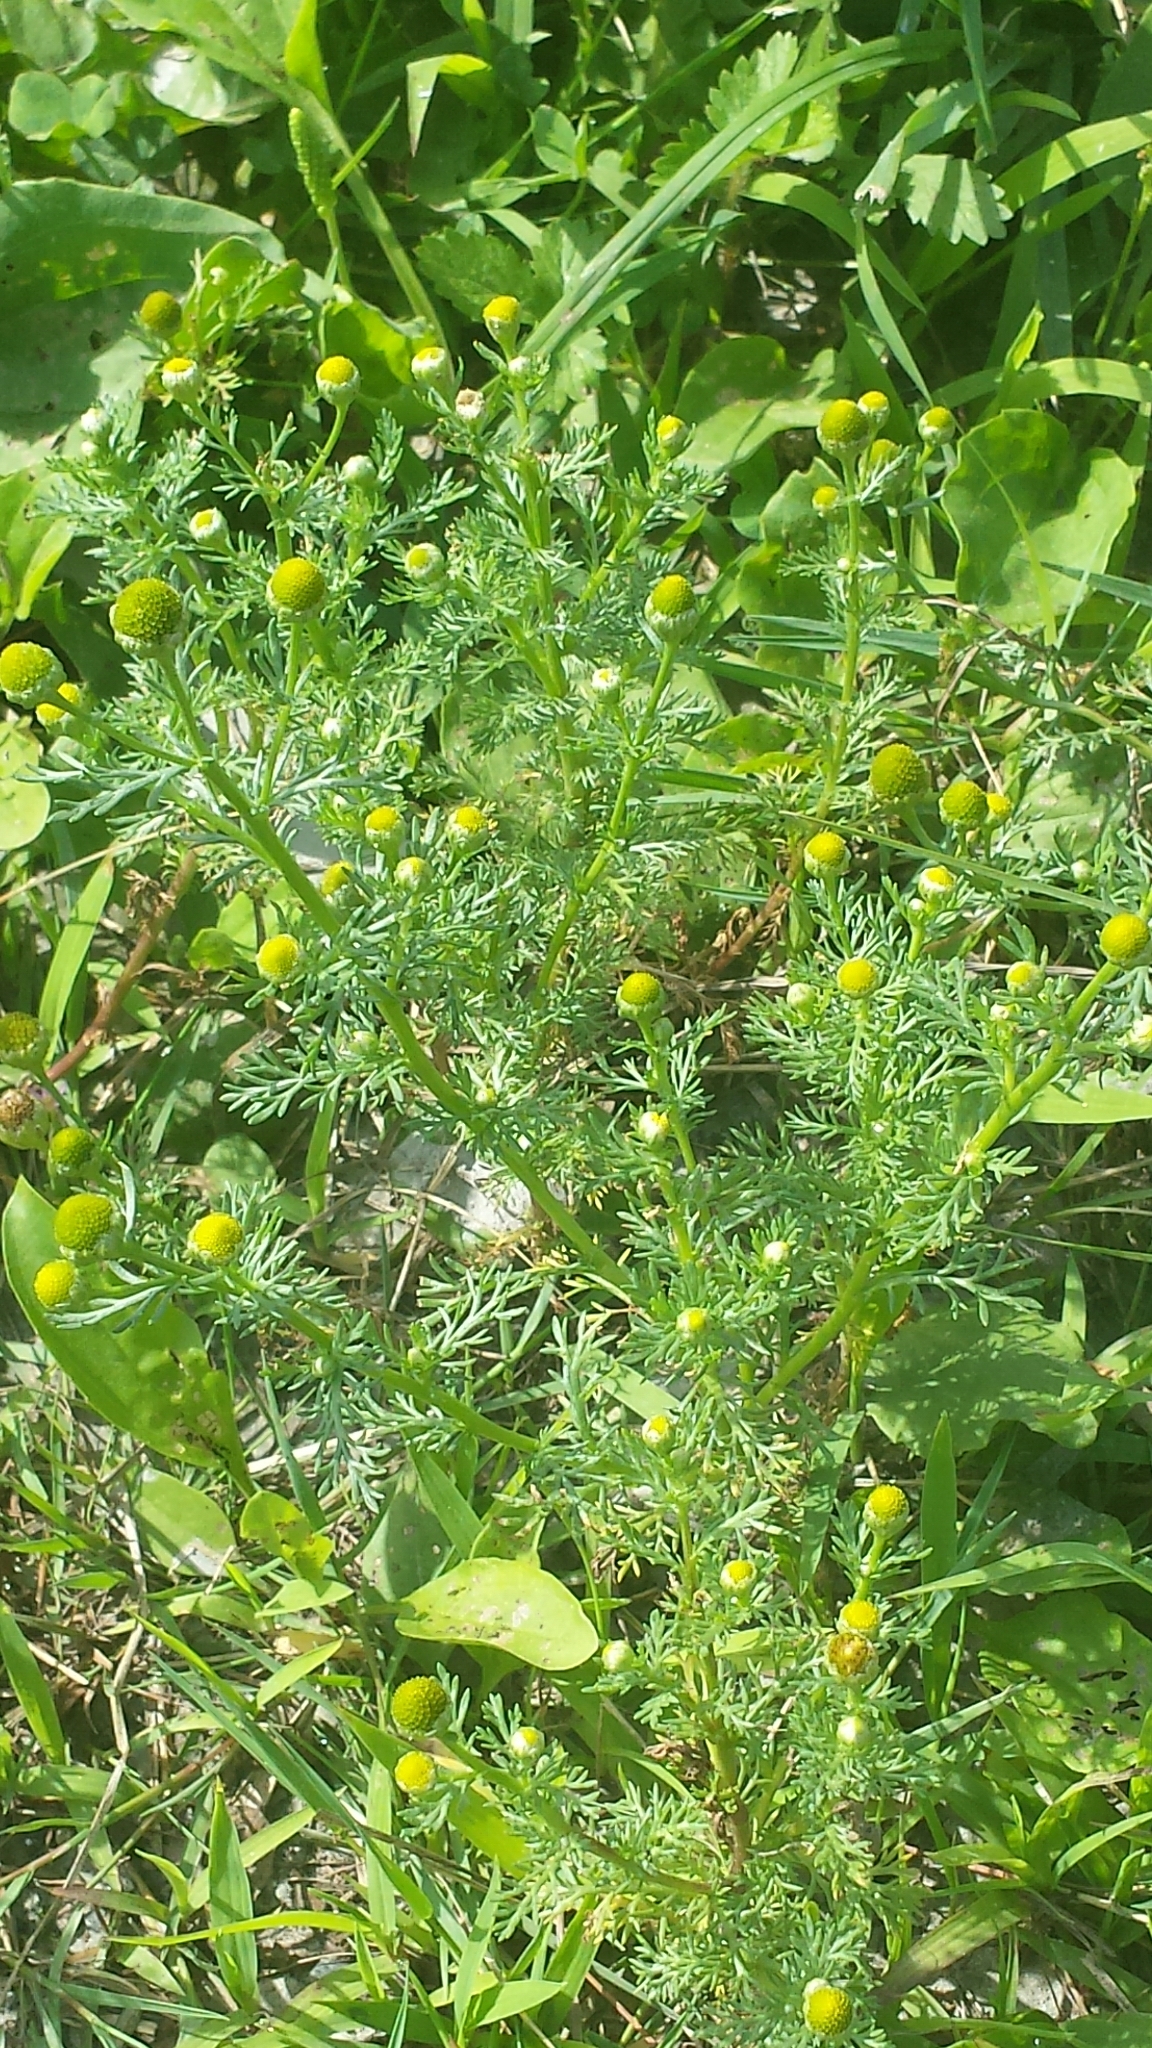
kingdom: Plantae
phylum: Tracheophyta
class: Magnoliopsida
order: Asterales
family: Asteraceae
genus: Matricaria
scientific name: Matricaria discoidea
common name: Disc mayweed
